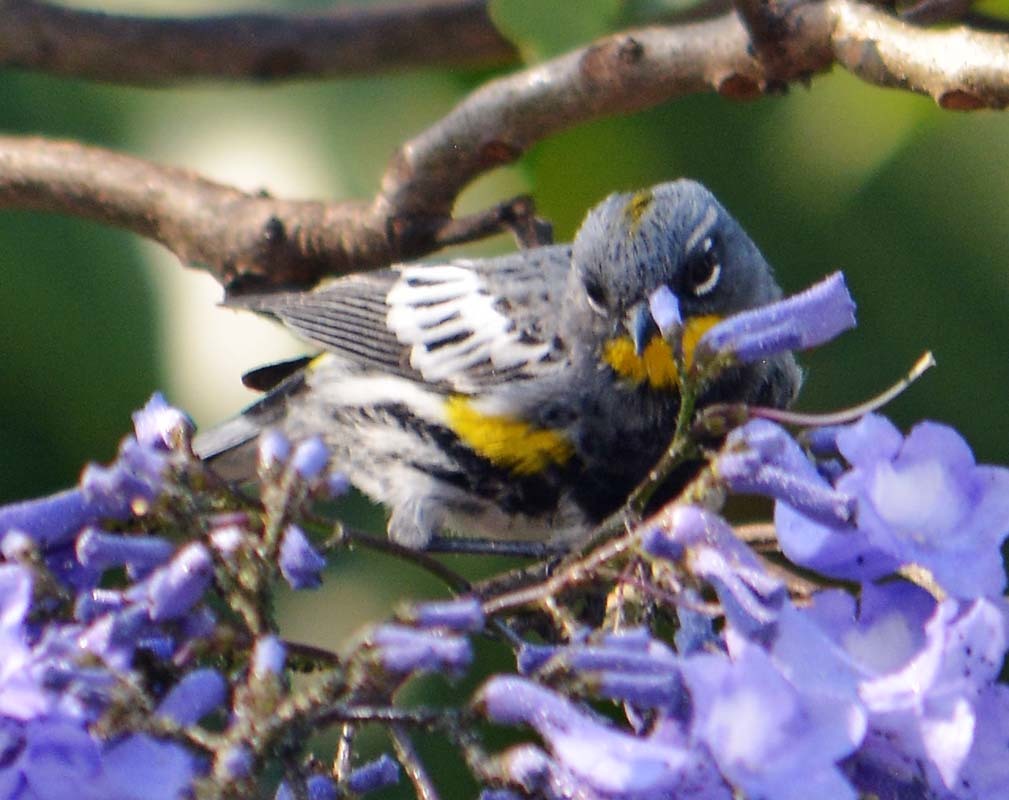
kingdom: Animalia
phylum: Chordata
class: Aves
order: Passeriformes
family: Parulidae
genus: Setophaga
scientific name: Setophaga auduboni
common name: Audubon's warbler
